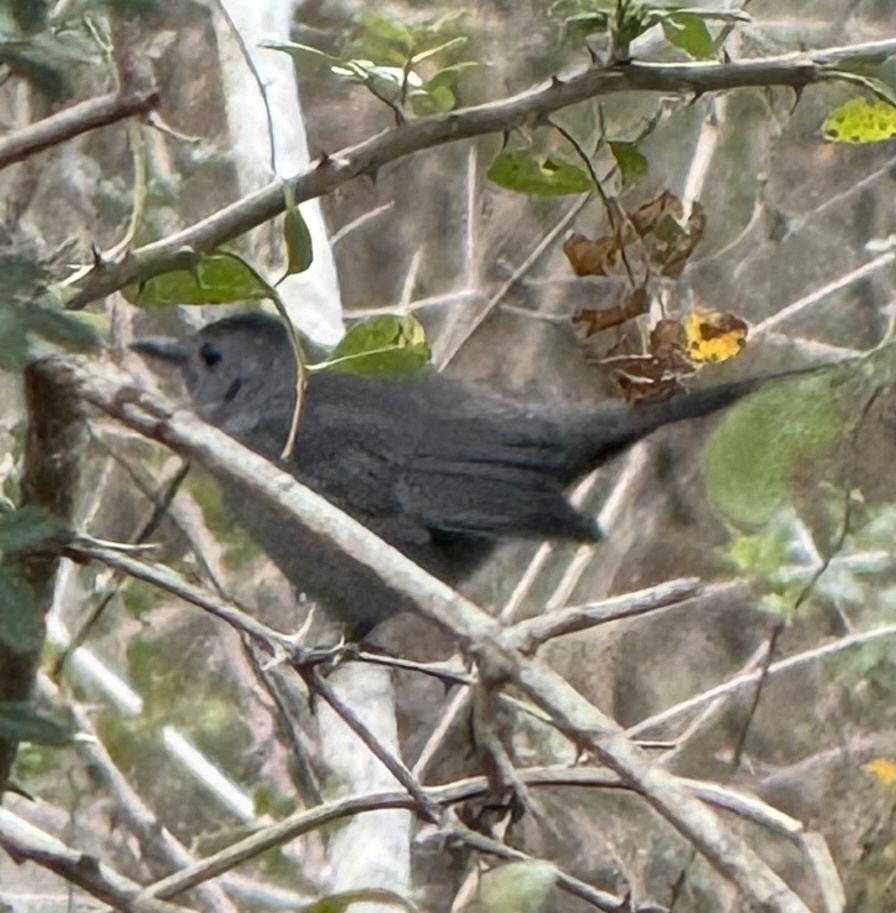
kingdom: Animalia
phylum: Chordata
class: Aves
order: Passeriformes
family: Mimidae
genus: Dumetella
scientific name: Dumetella carolinensis
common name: Gray catbird
